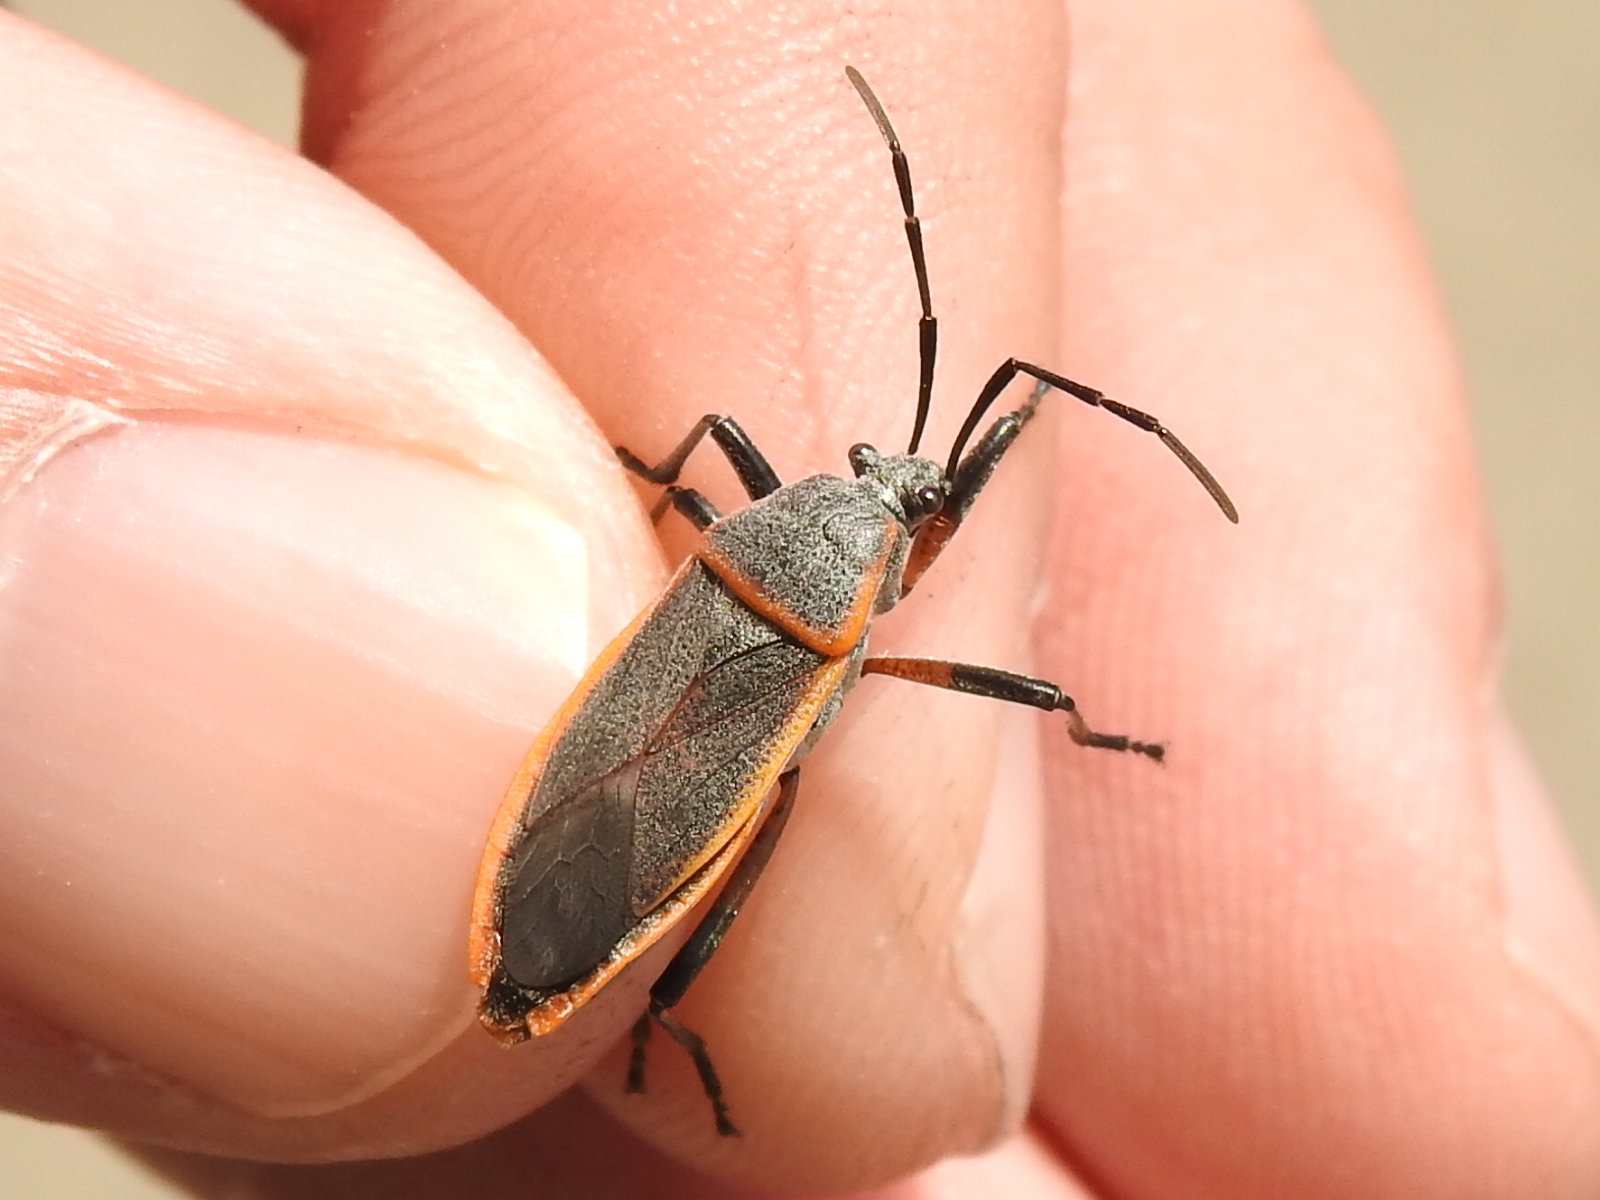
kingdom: Animalia
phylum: Arthropoda
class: Insecta
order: Hemiptera
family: Largidae
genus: Largus
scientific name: Largus succinctus
